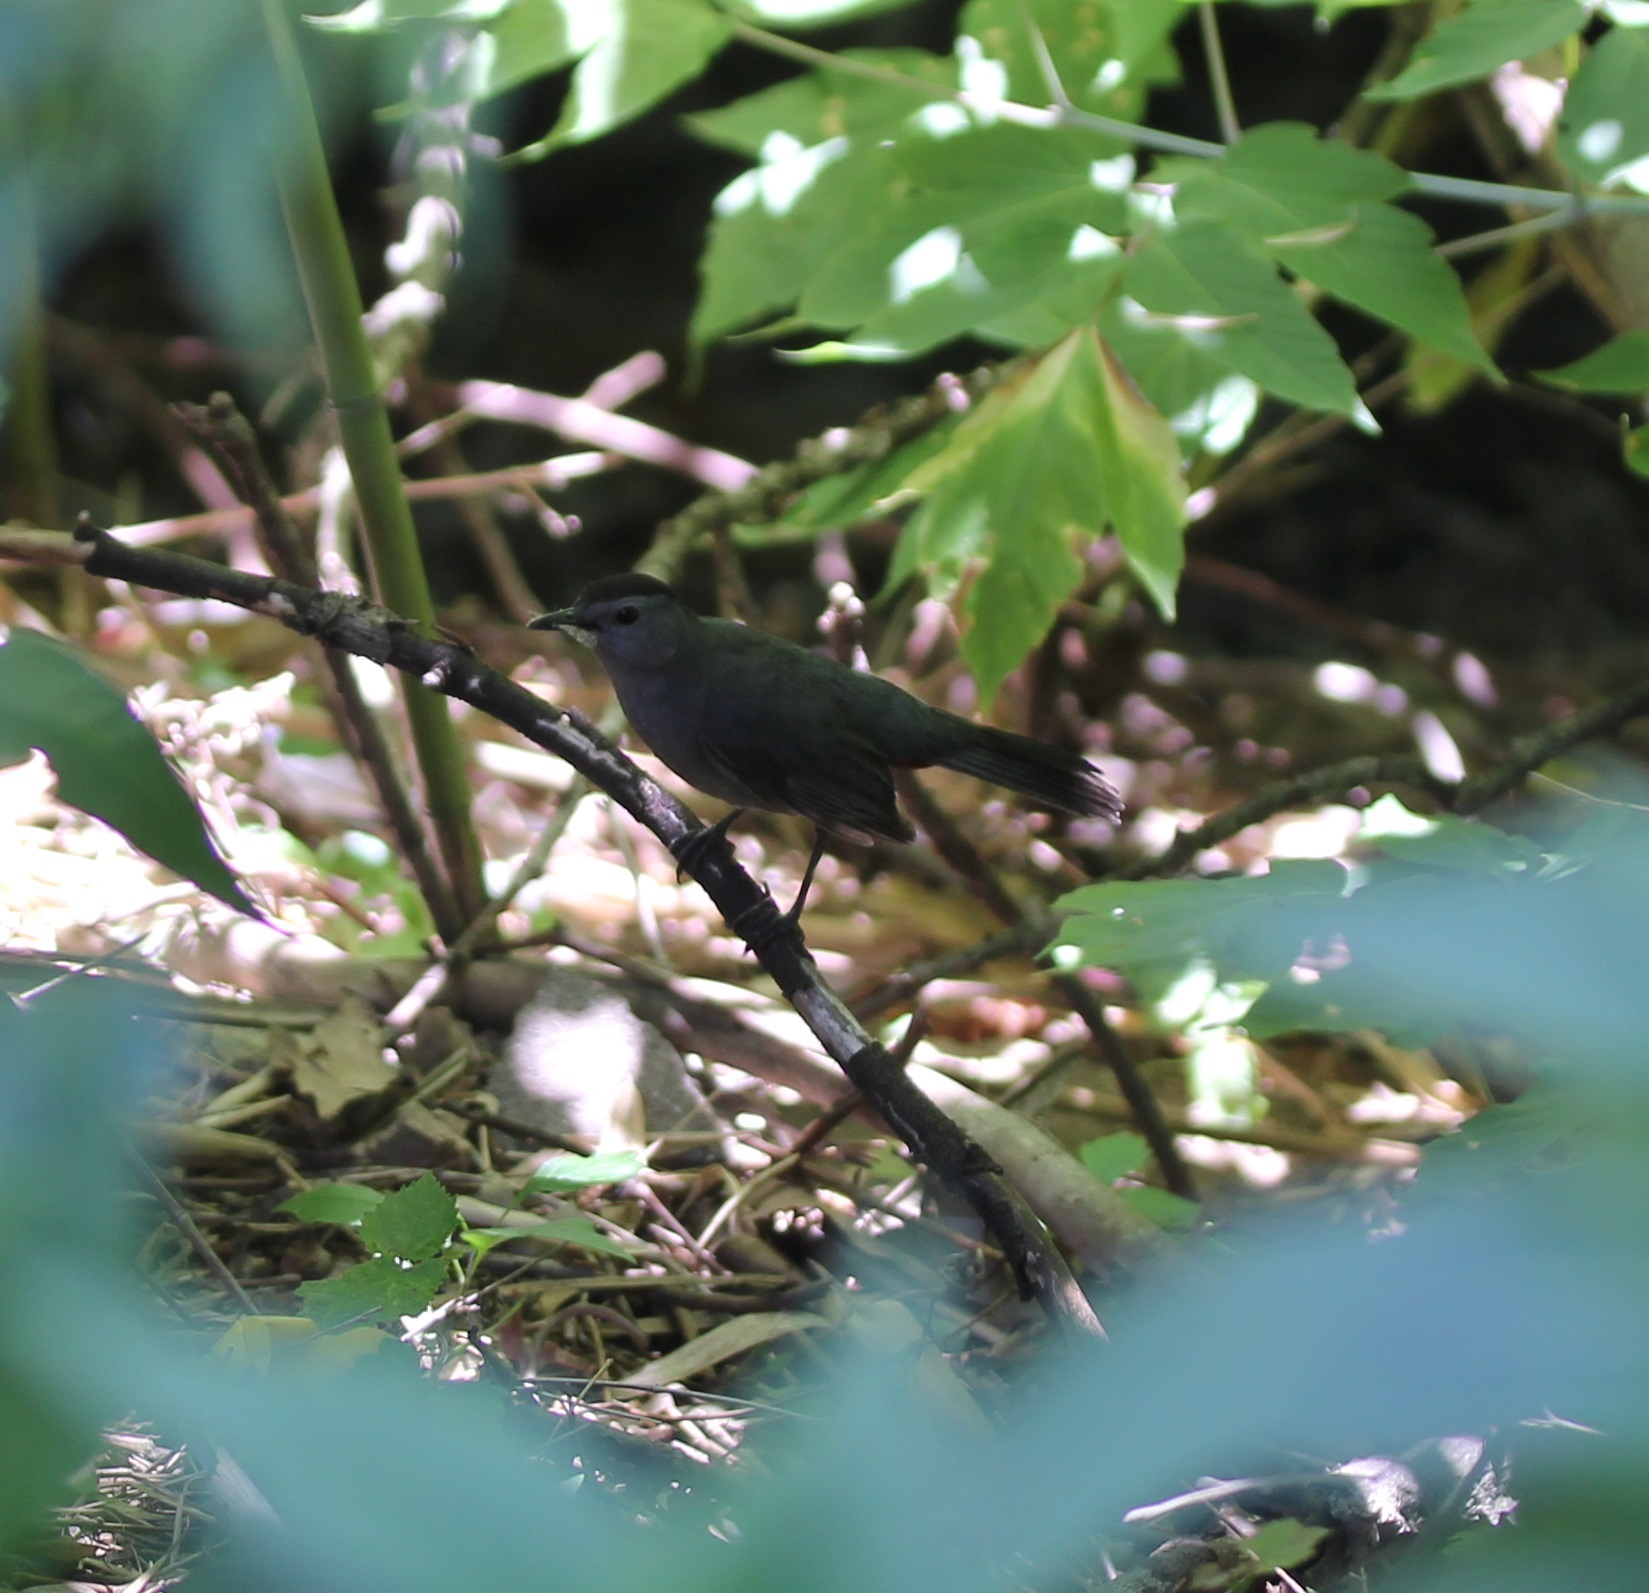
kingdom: Animalia
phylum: Chordata
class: Aves
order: Passeriformes
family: Mimidae
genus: Dumetella
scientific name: Dumetella carolinensis
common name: Gray catbird
